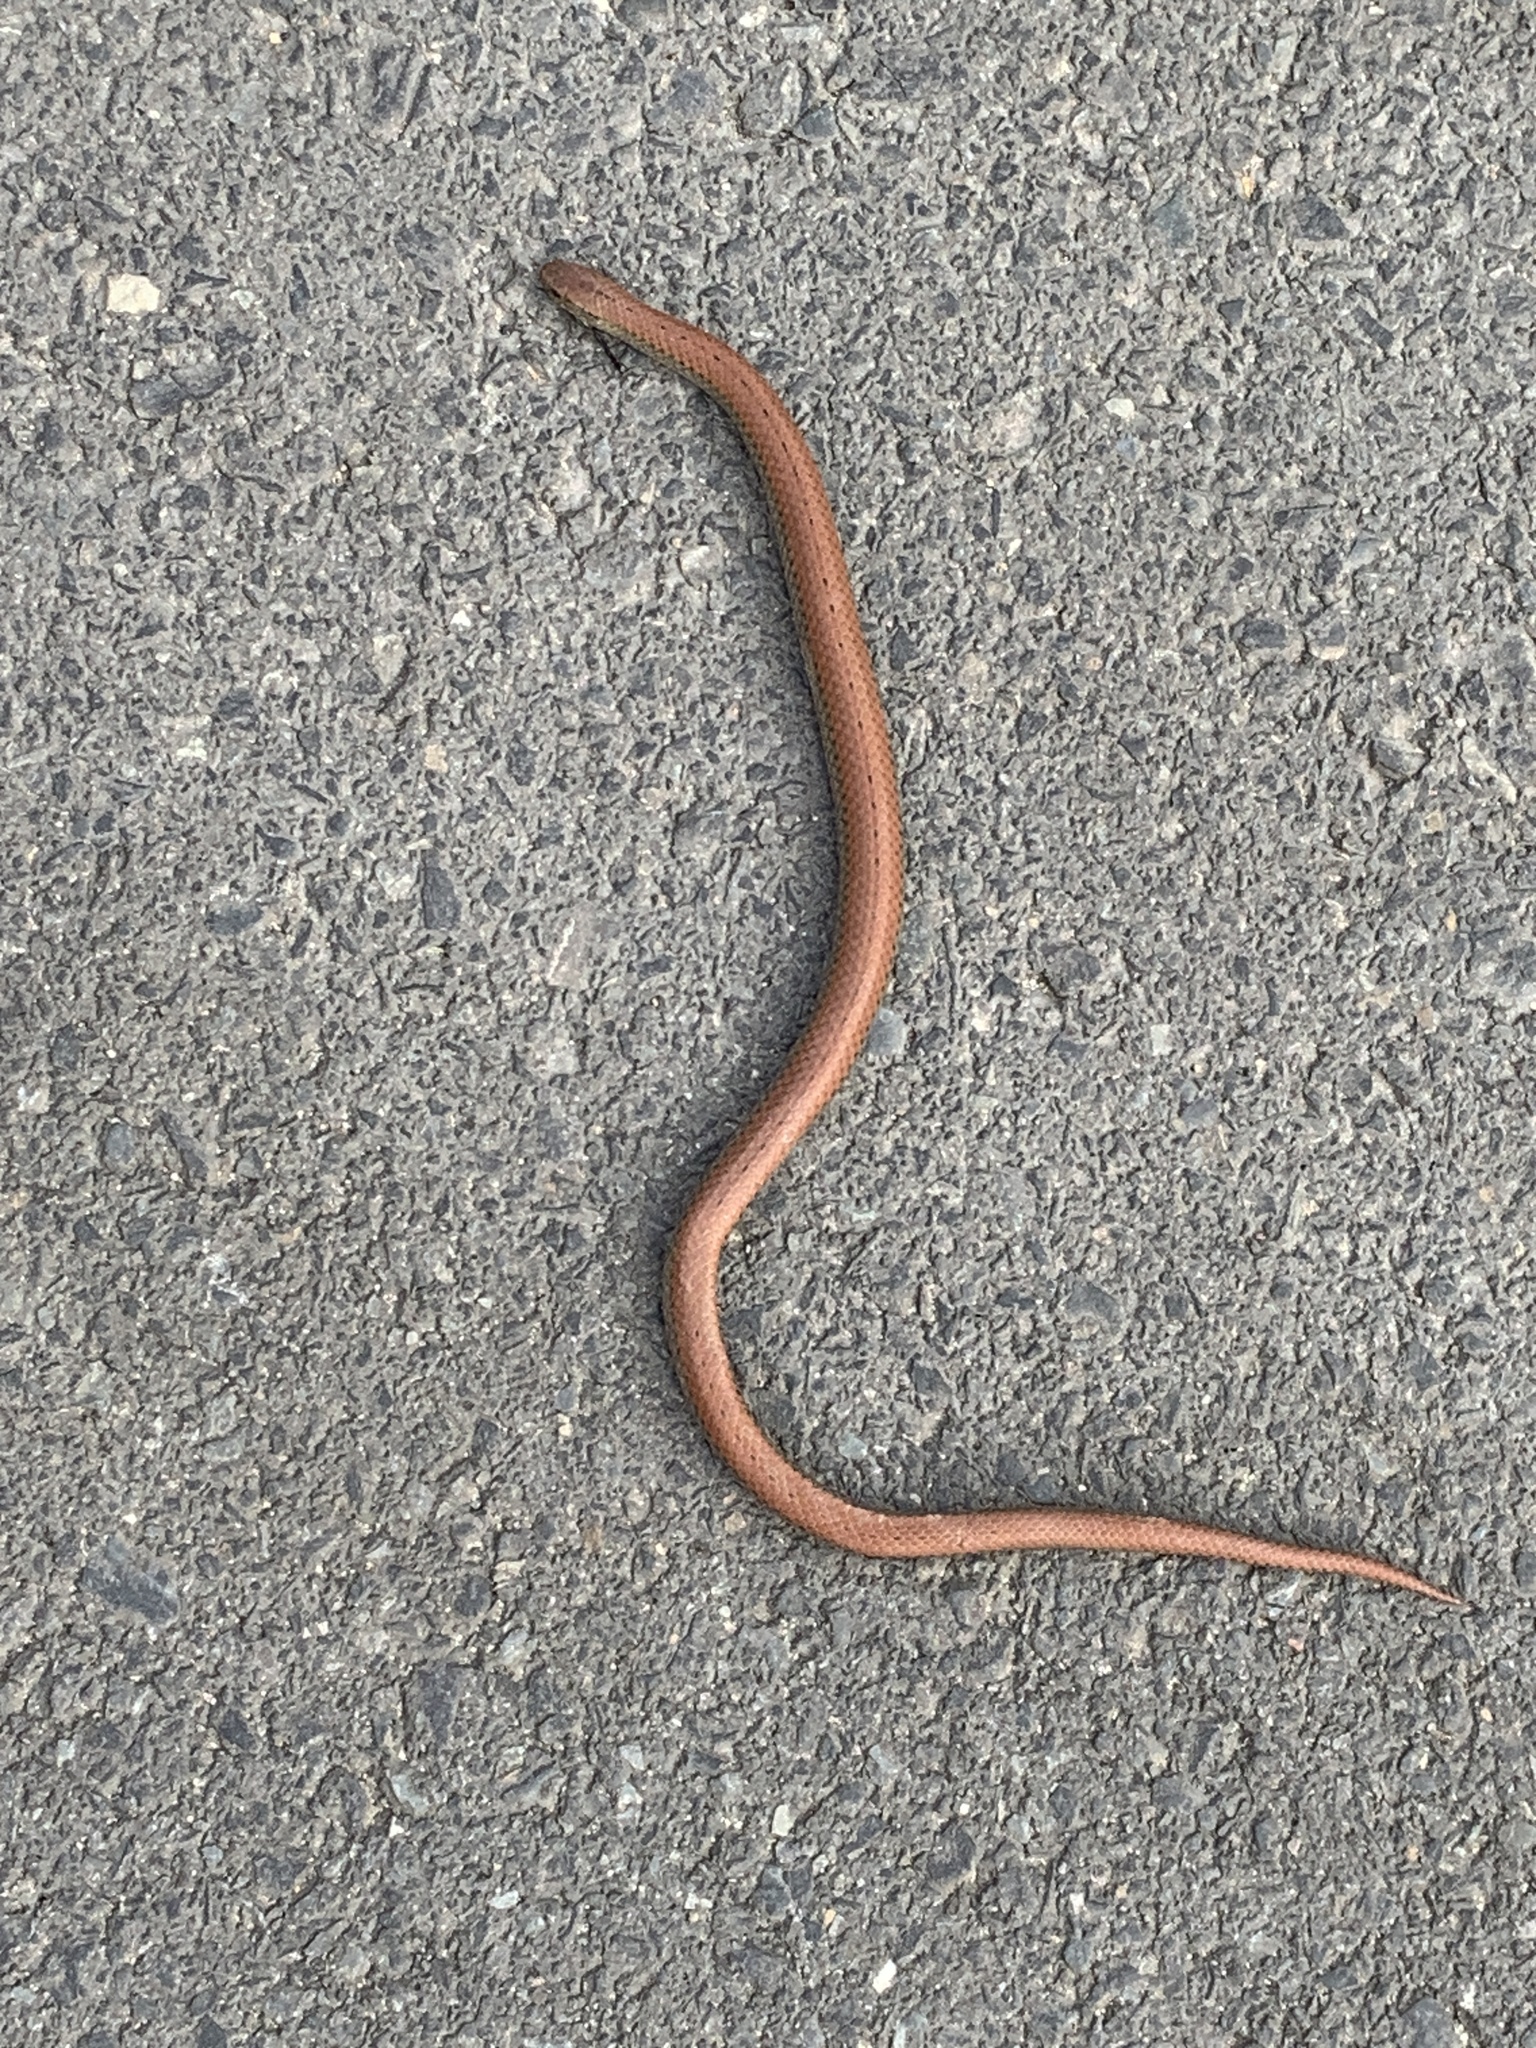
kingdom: Animalia
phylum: Chordata
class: Squamata
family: Pseudoxyrhophiidae
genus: Duberria
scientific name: Duberria lutrix
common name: Common slug eater
